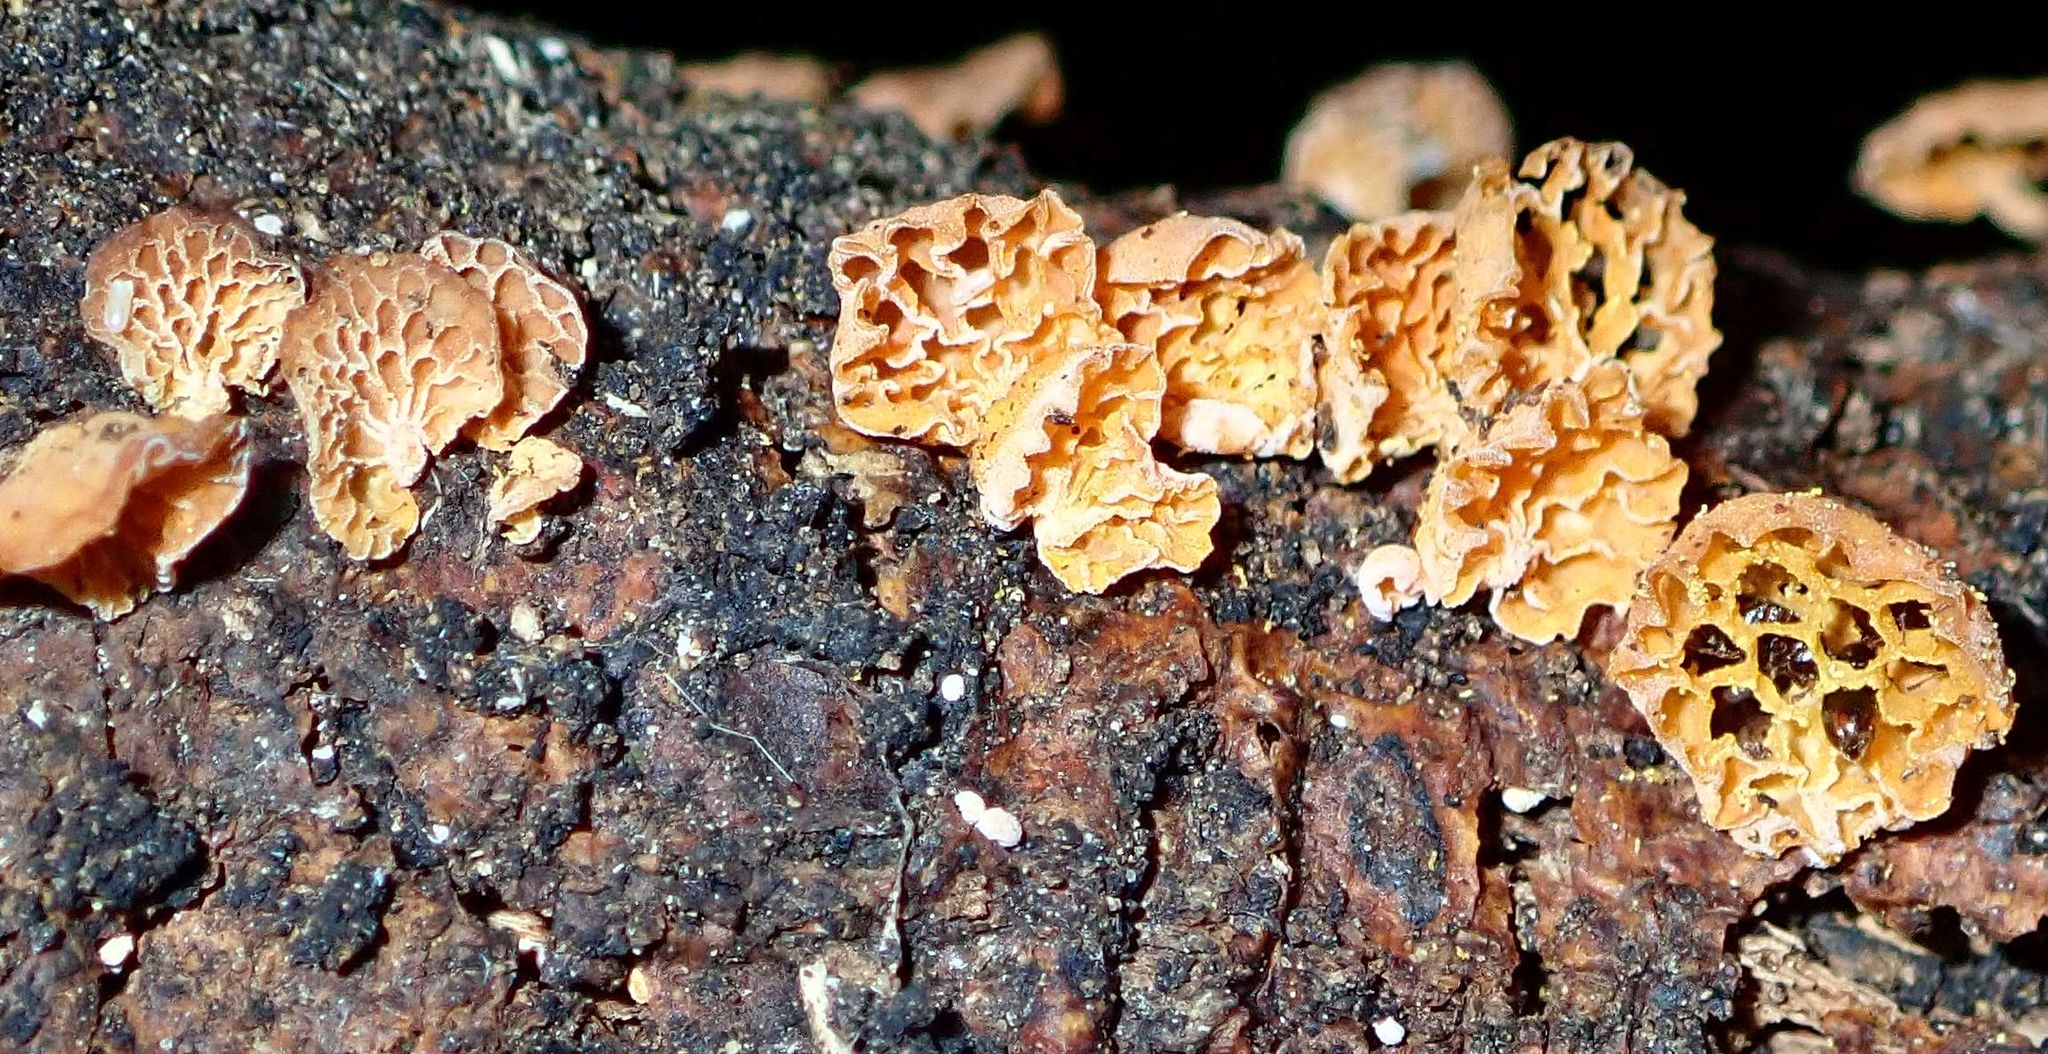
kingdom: Fungi
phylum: Basidiomycota
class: Agaricomycetes
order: Agaricales
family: Mycenaceae
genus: Favolaschia
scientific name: Favolaschia claudopus
